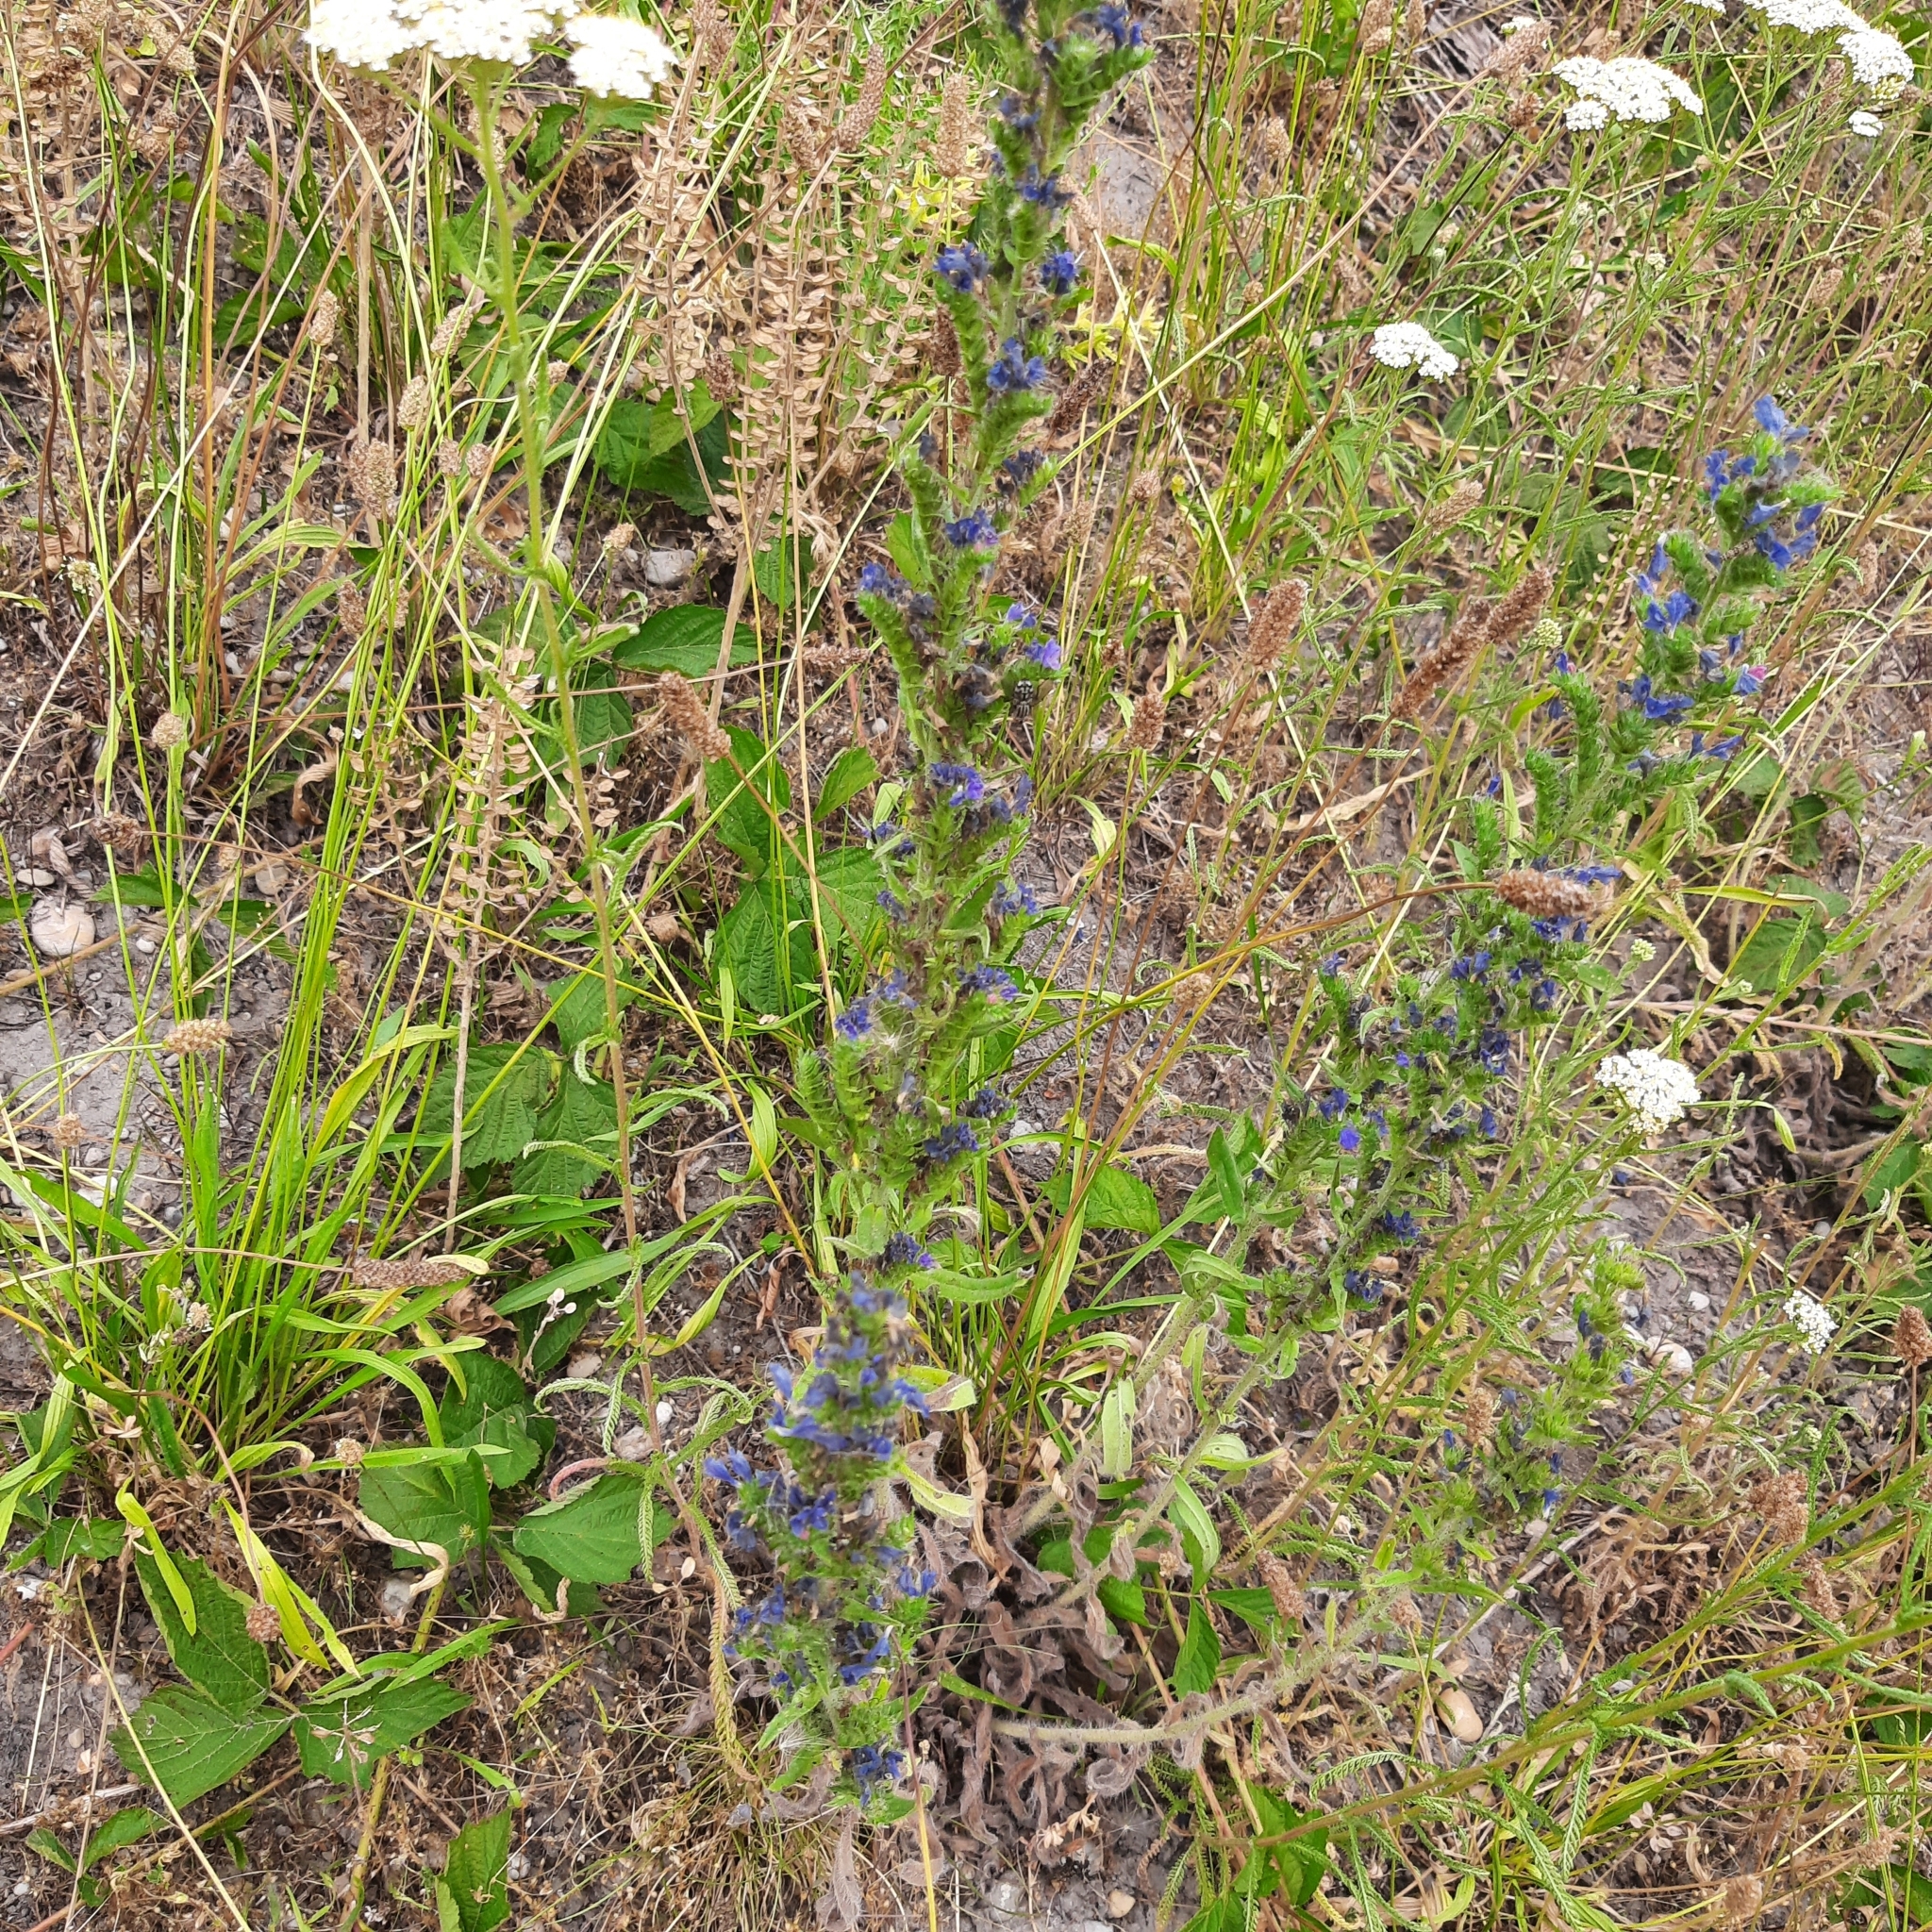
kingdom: Plantae
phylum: Tracheophyta
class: Magnoliopsida
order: Boraginales
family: Boraginaceae
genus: Echium
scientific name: Echium vulgare
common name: Common viper's bugloss
